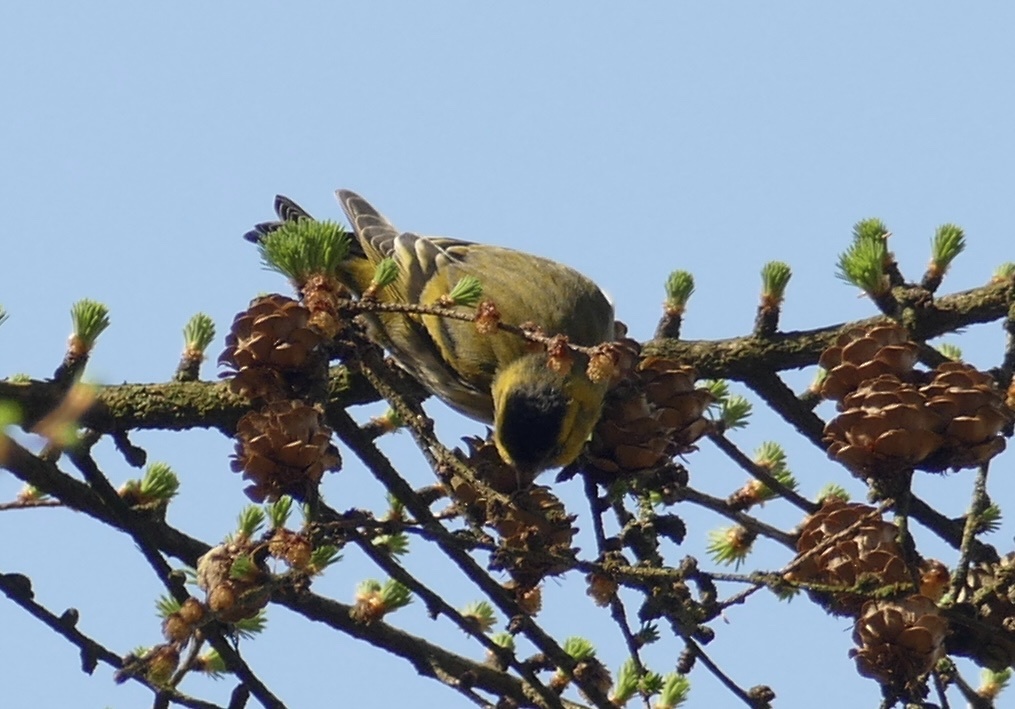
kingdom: Animalia
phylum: Chordata
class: Aves
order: Passeriformes
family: Fringillidae
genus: Spinus
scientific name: Spinus spinus
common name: Eurasian siskin
